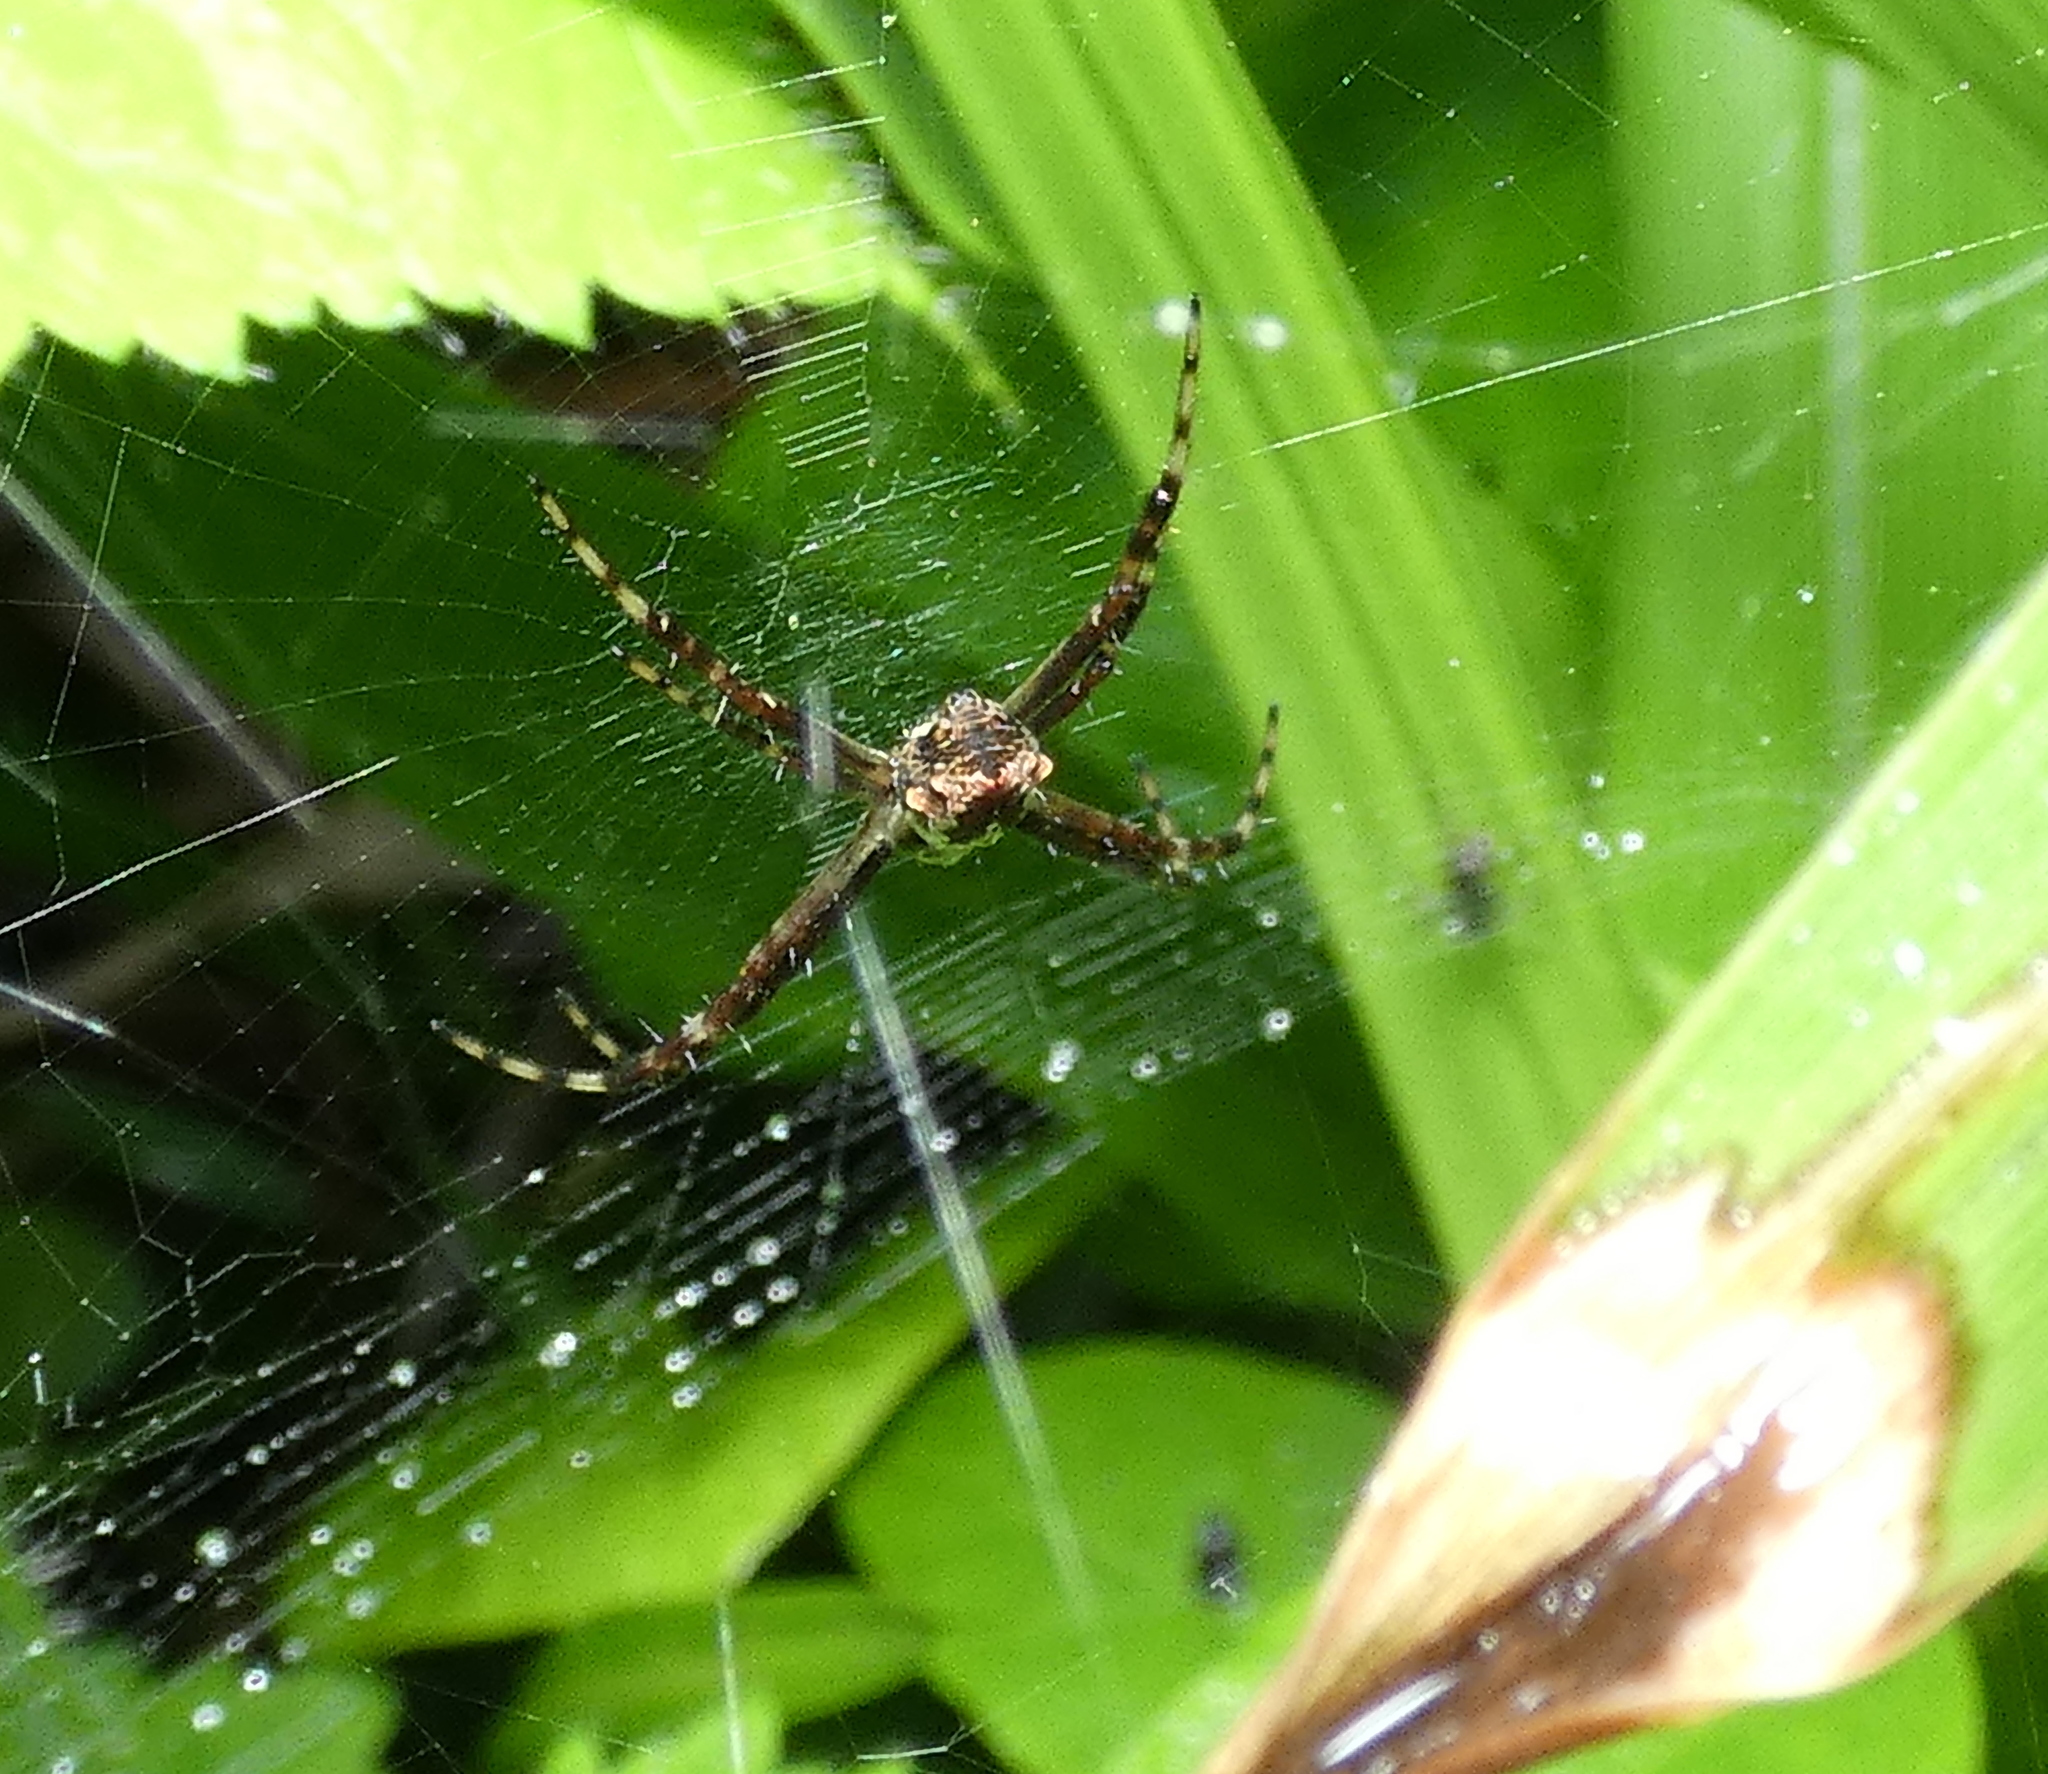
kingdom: Animalia
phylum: Arthropoda
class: Arachnida
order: Araneae
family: Araneidae
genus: Argiope
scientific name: Argiope argentata
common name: Orb weavers
